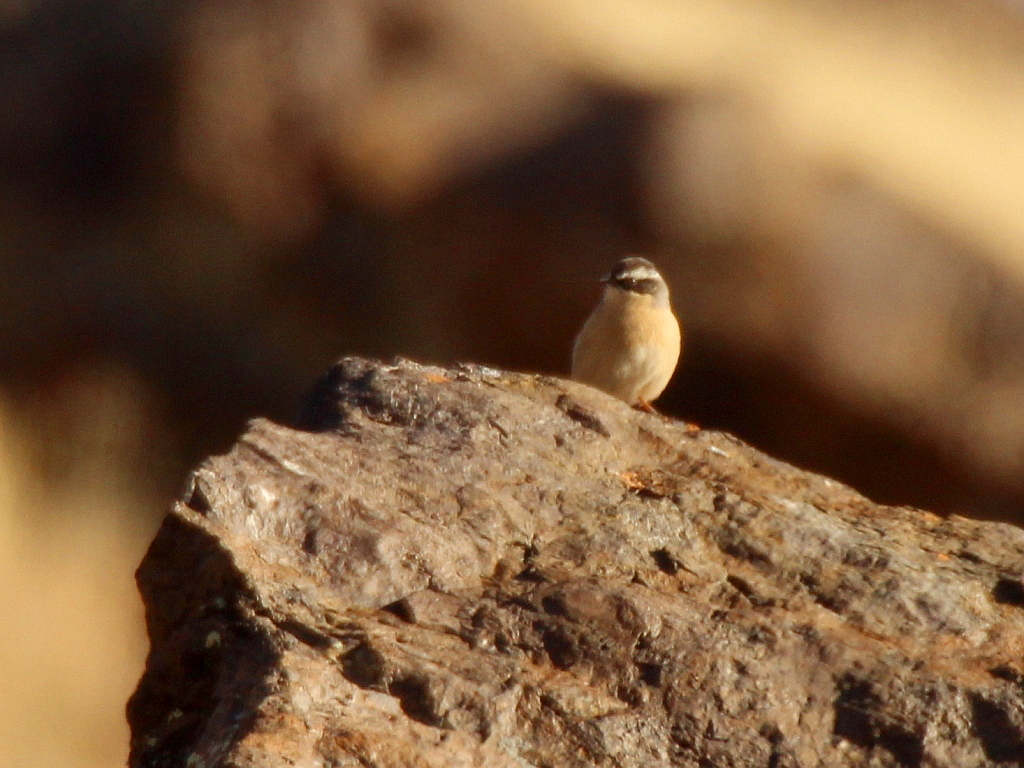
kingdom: Animalia
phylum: Chordata
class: Aves
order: Passeriformes
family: Prunellidae
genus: Prunella
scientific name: Prunella fulvescens
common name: Brown accentor
